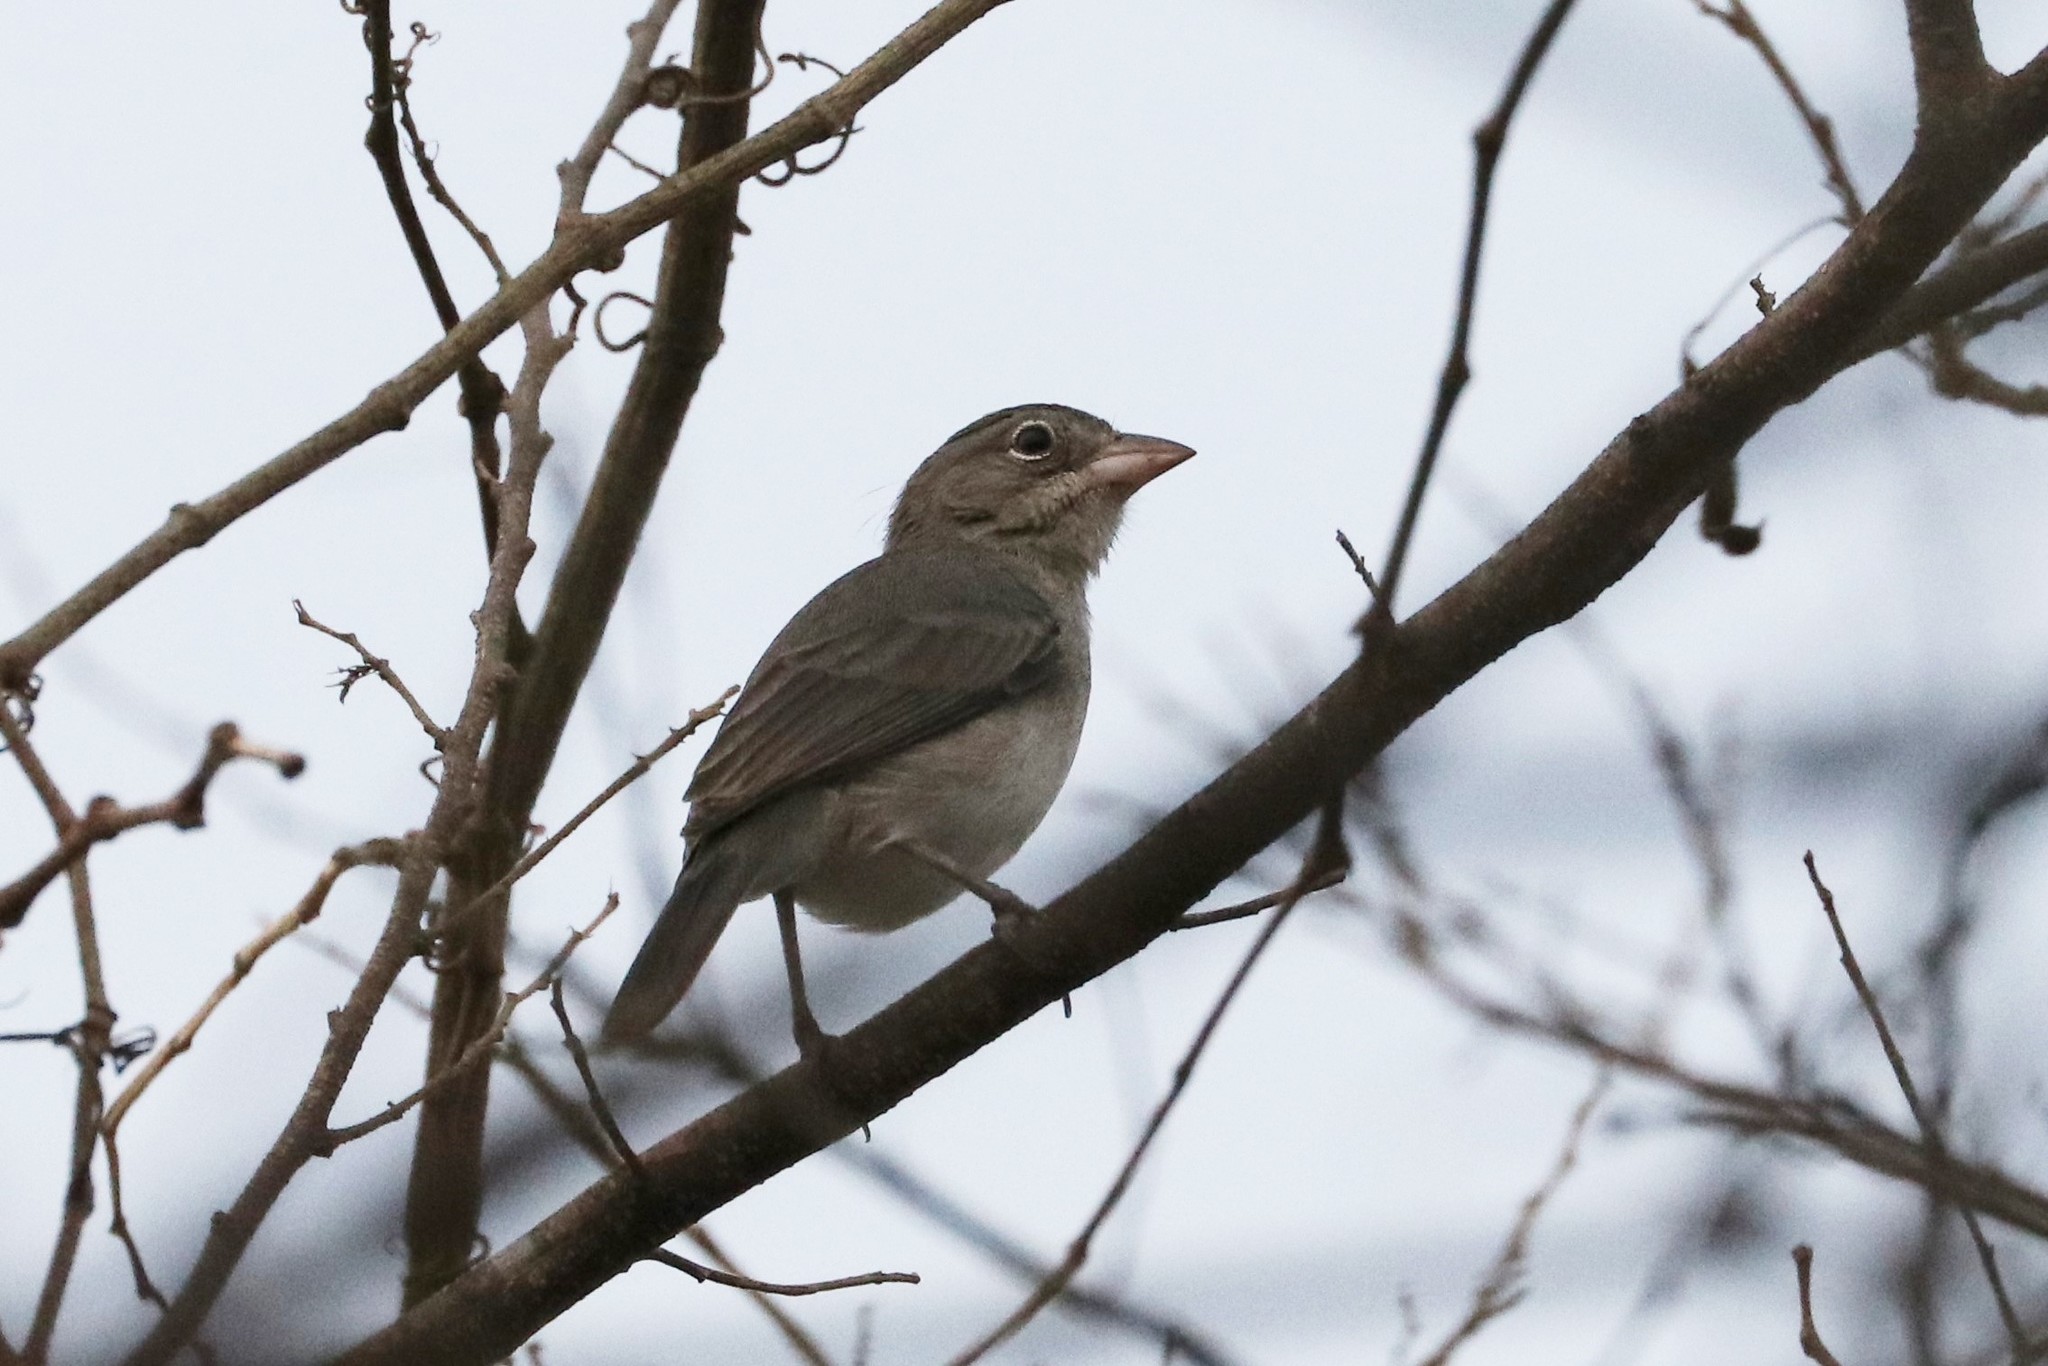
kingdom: Animalia
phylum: Chordata
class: Aves
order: Passeriformes
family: Thraupidae
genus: Coryphospingus
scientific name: Coryphospingus pileatus
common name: Grey pileated finch
